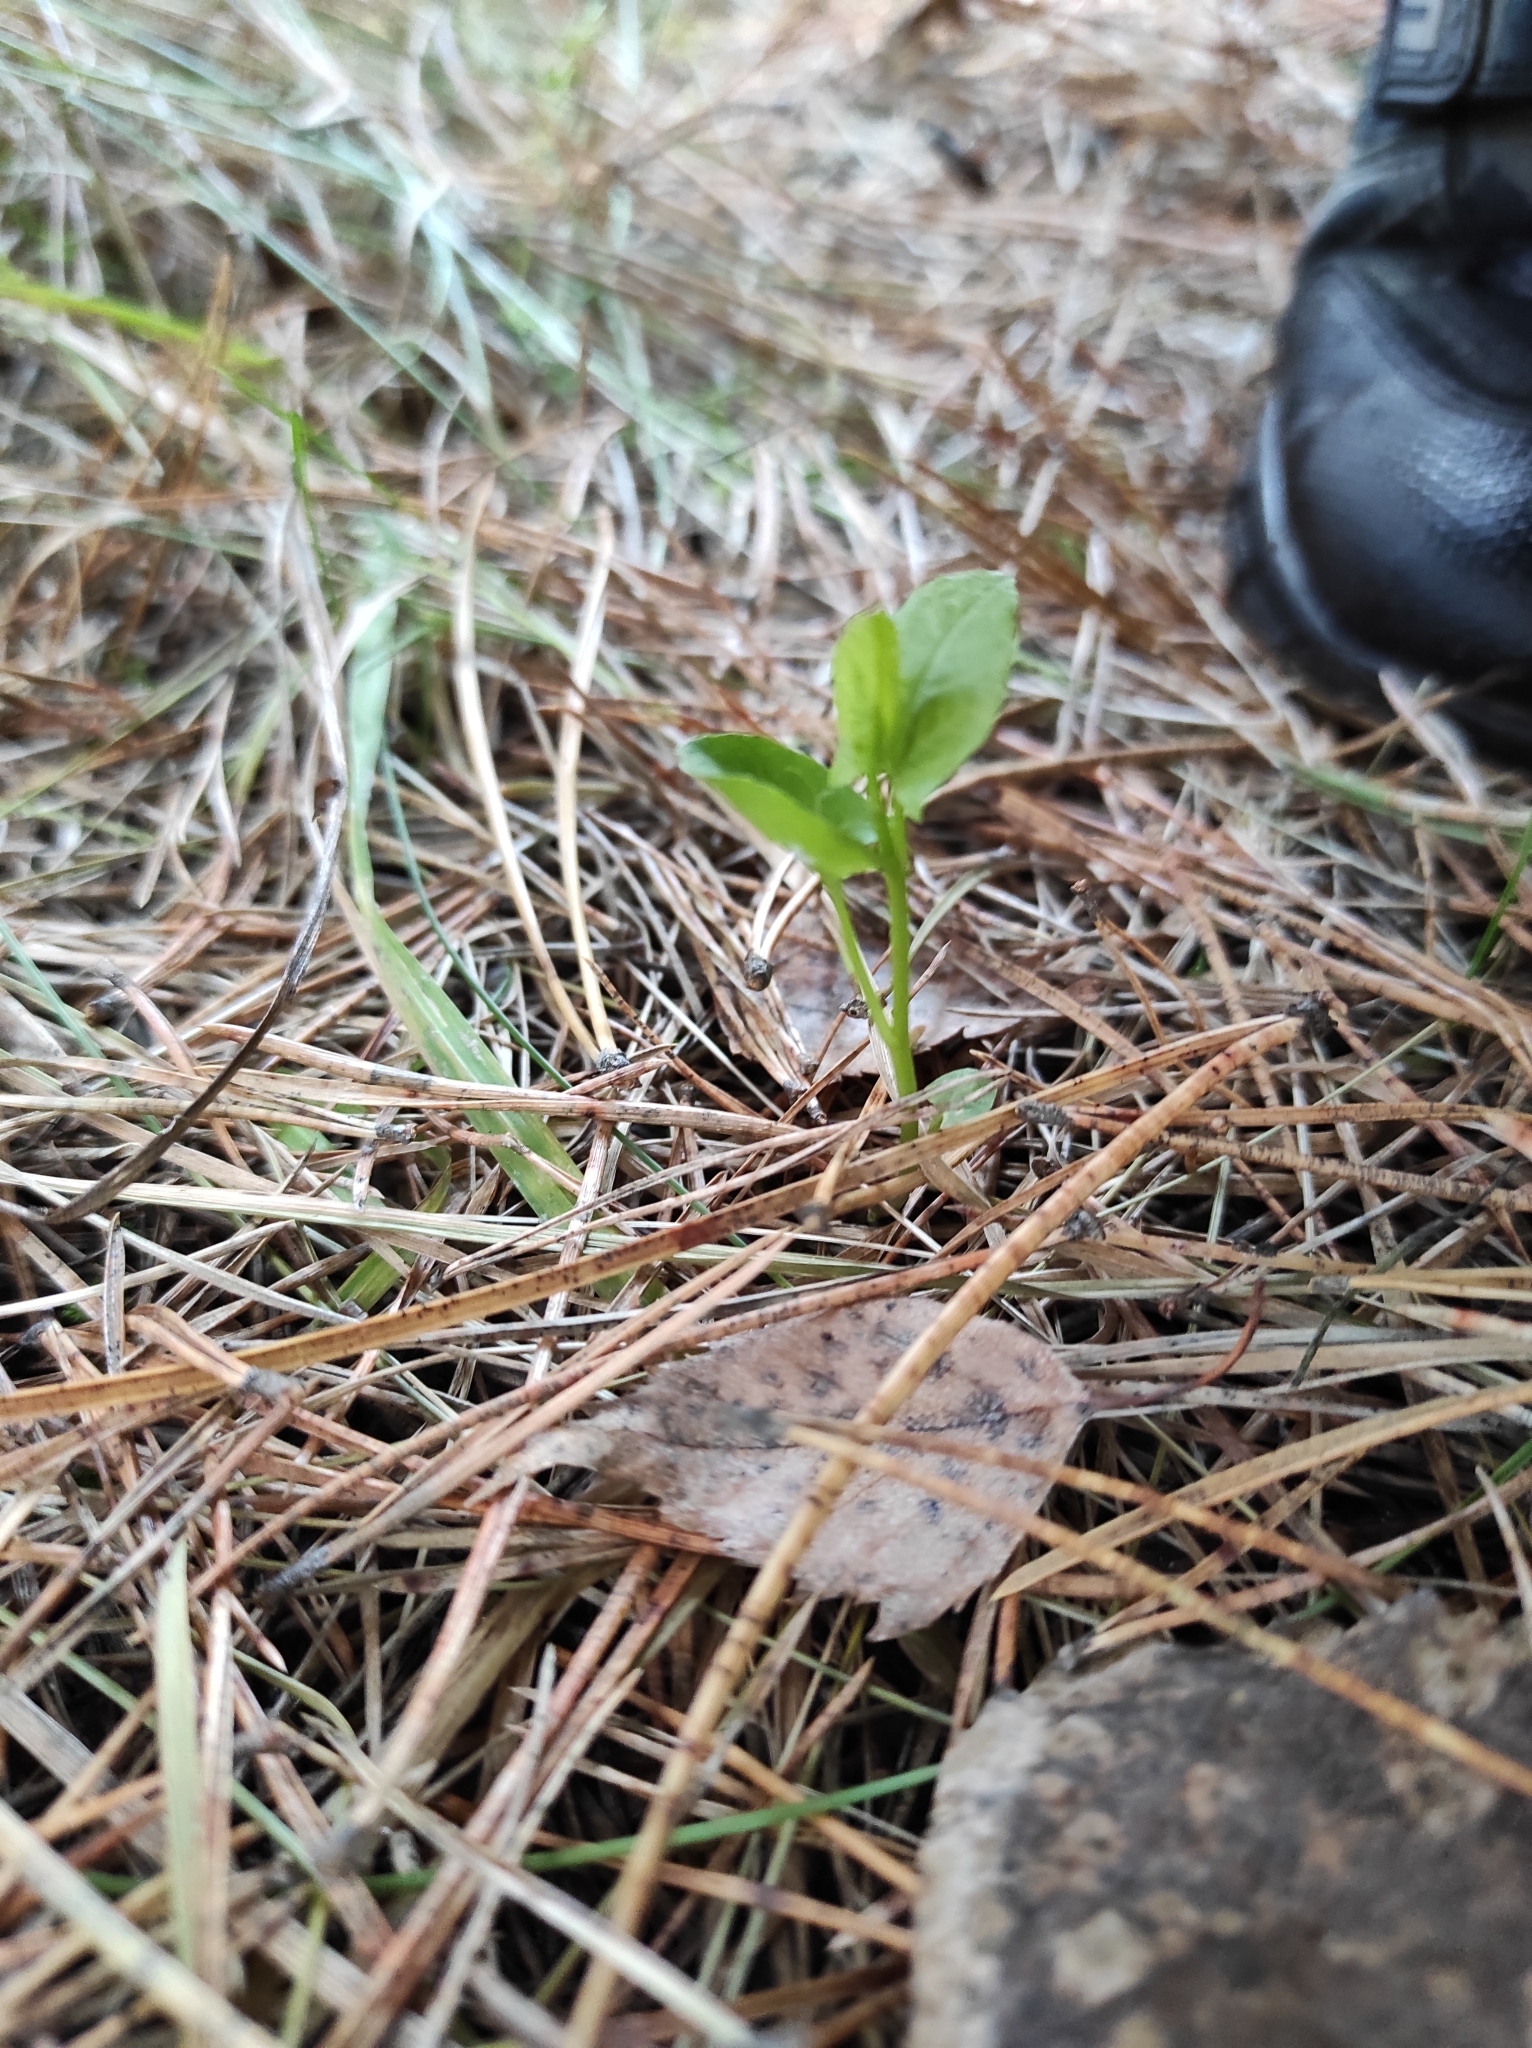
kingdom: Plantae
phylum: Tracheophyta
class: Magnoliopsida
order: Solanales
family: Convolvulaceae
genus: Convolvulus
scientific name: Convolvulus arvensis
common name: Field bindweed
